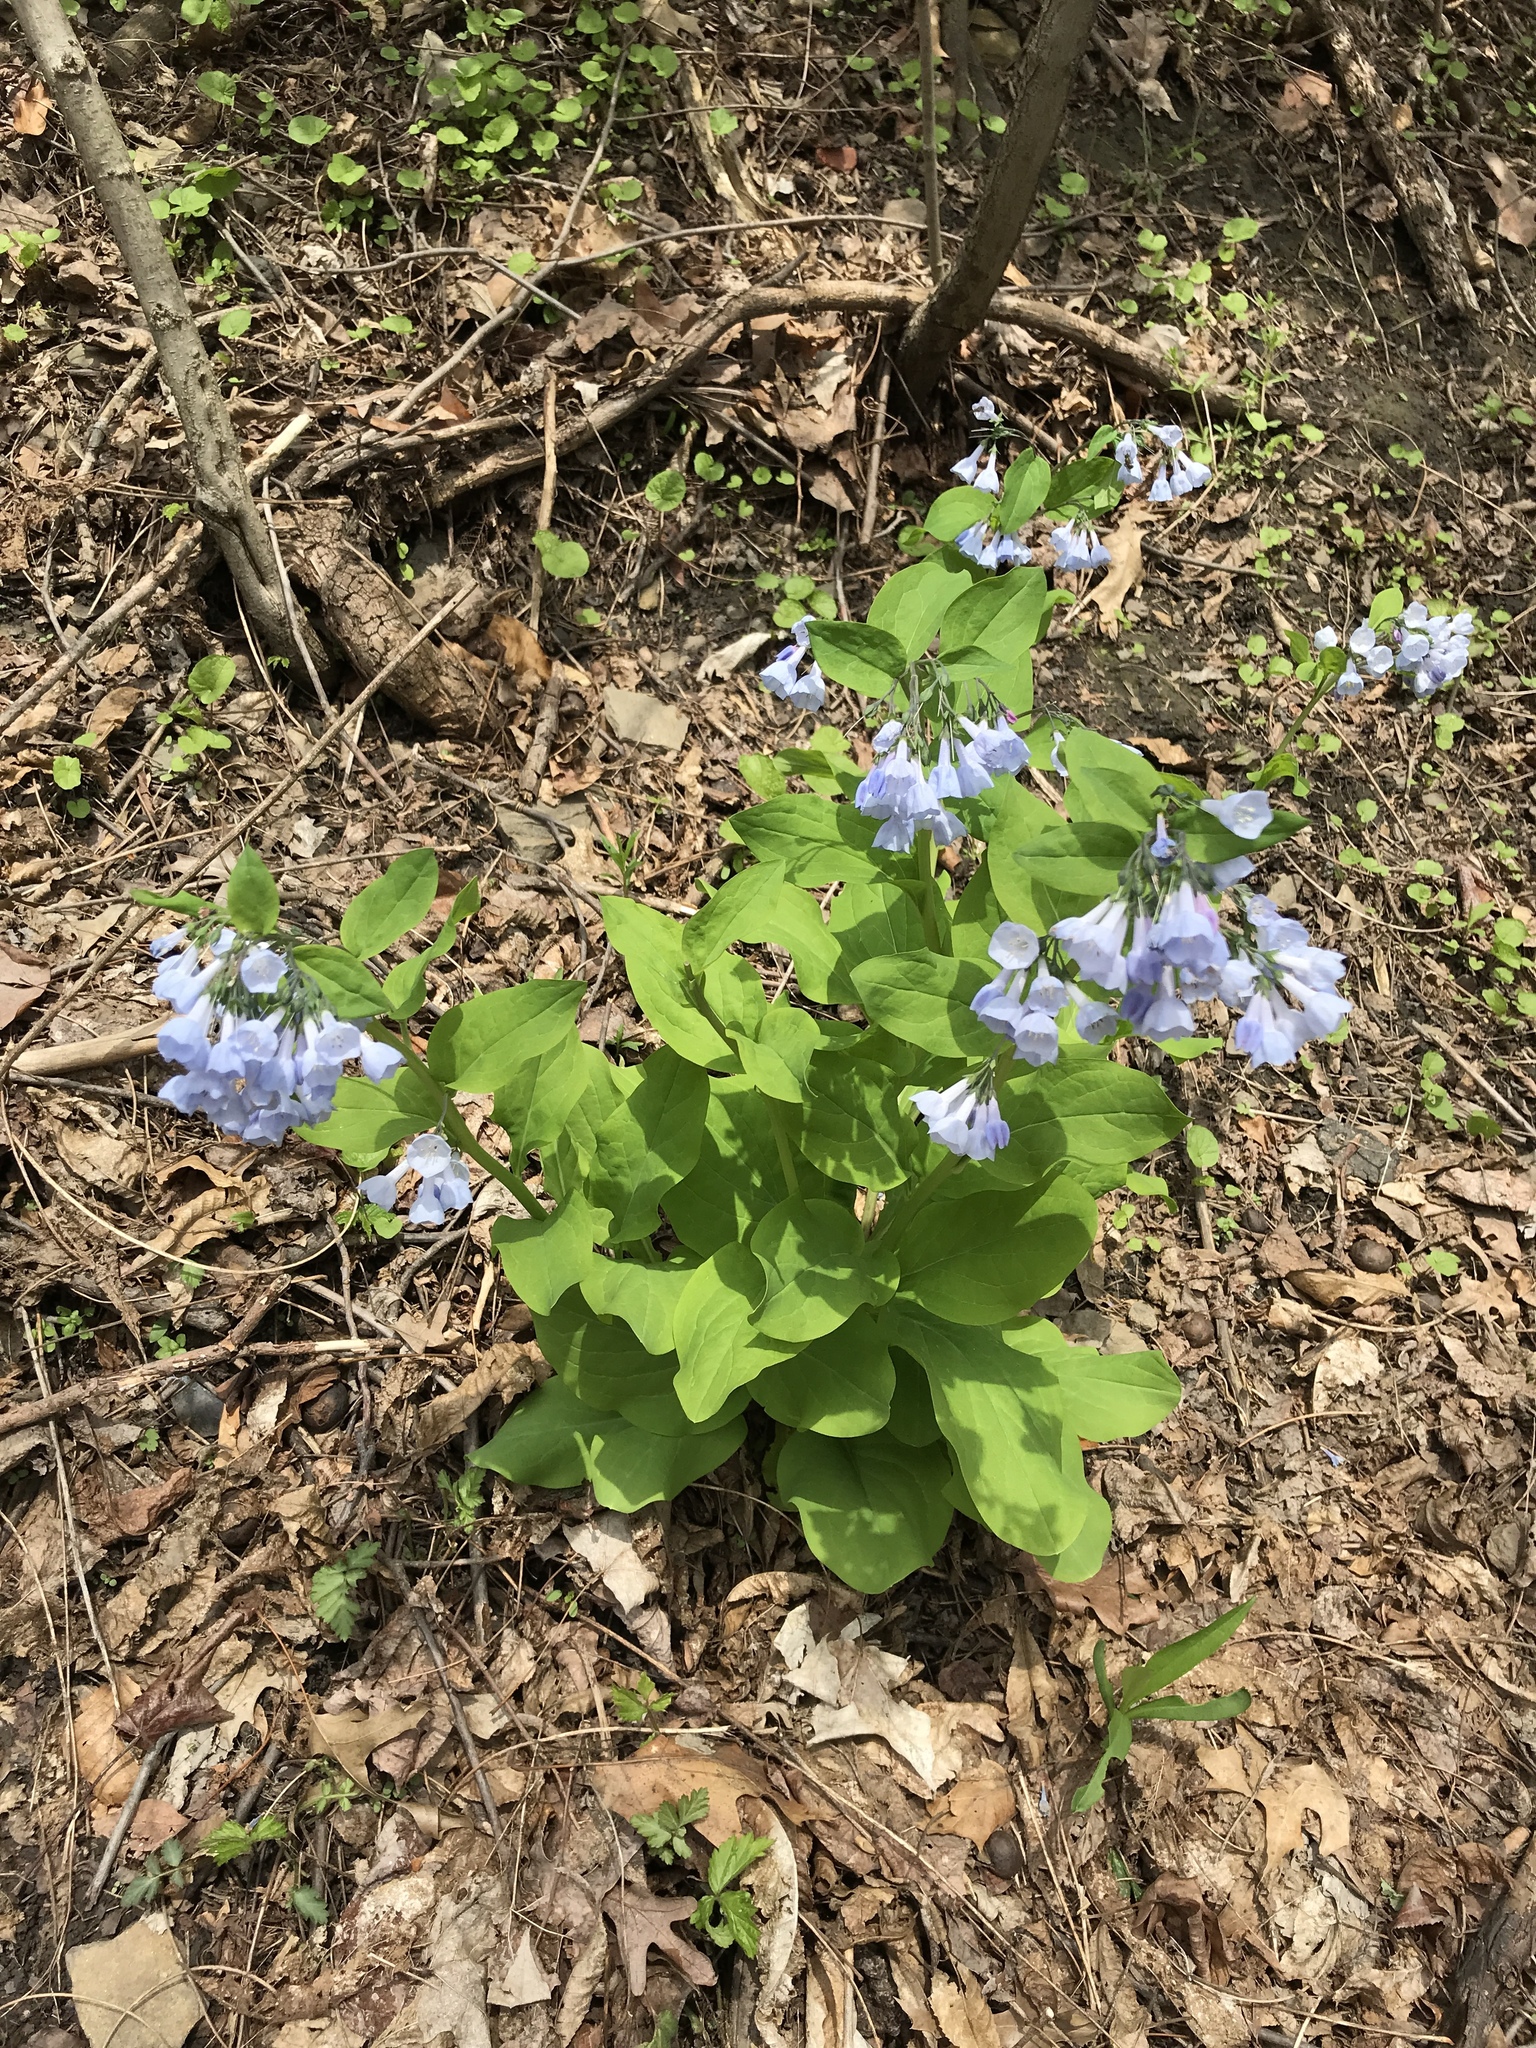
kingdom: Plantae
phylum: Tracheophyta
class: Magnoliopsida
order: Boraginales
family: Boraginaceae
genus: Mertensia
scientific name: Mertensia virginica
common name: Virginia bluebells
